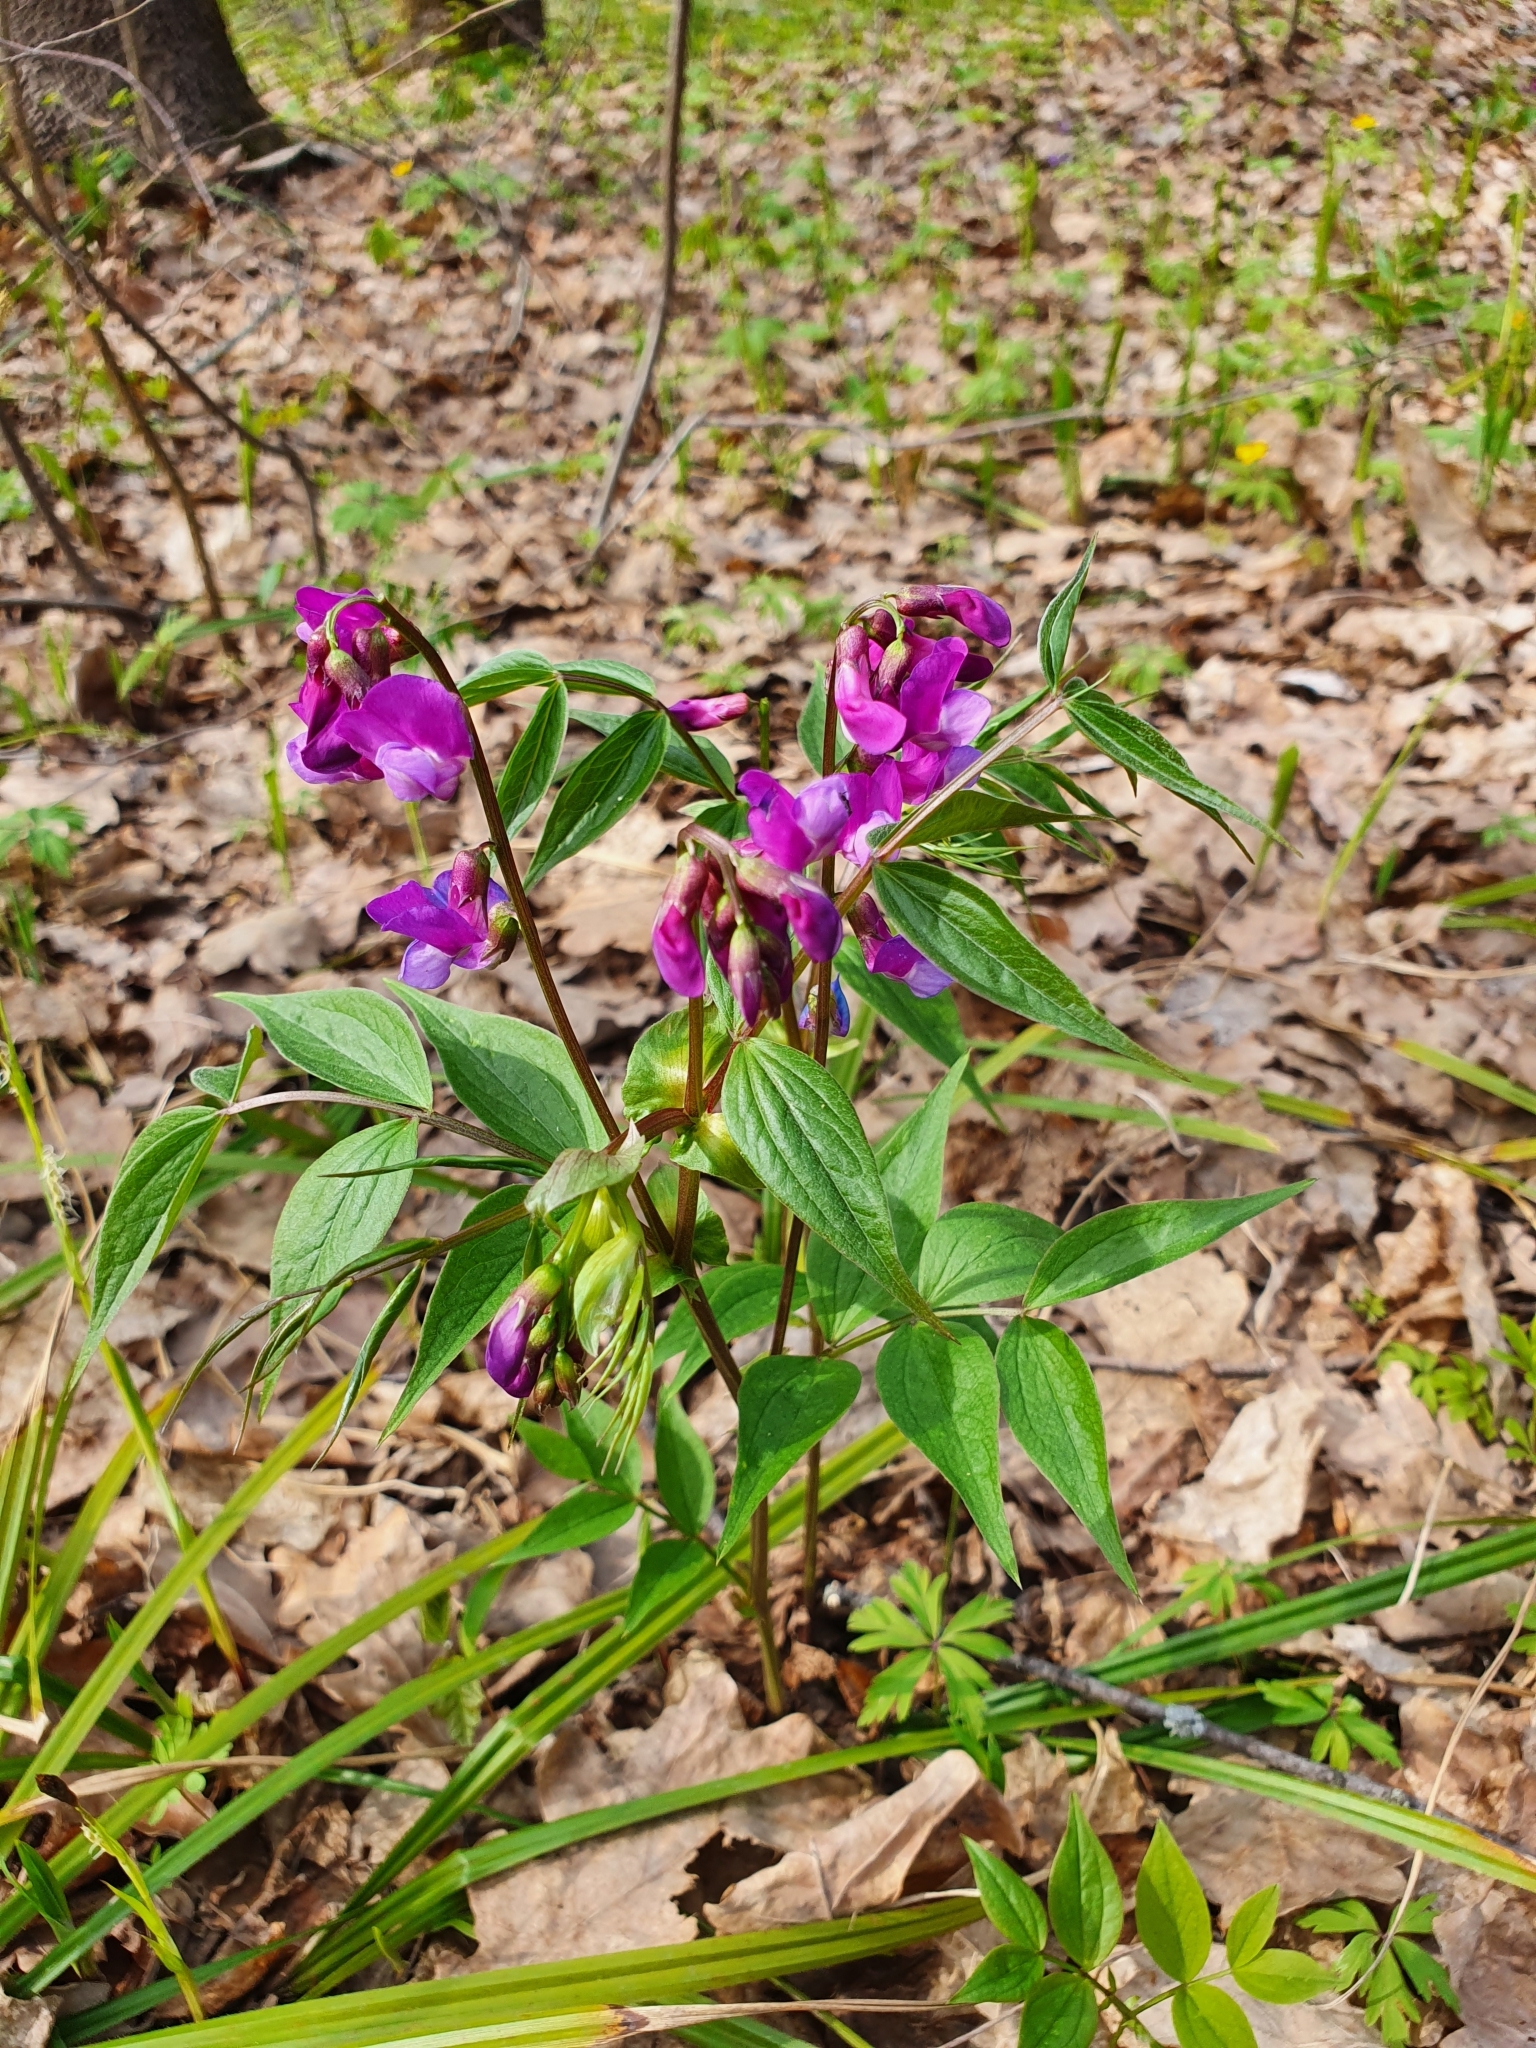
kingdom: Plantae
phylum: Tracheophyta
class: Magnoliopsida
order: Fabales
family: Fabaceae
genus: Lathyrus
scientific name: Lathyrus vernus
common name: Spring pea
